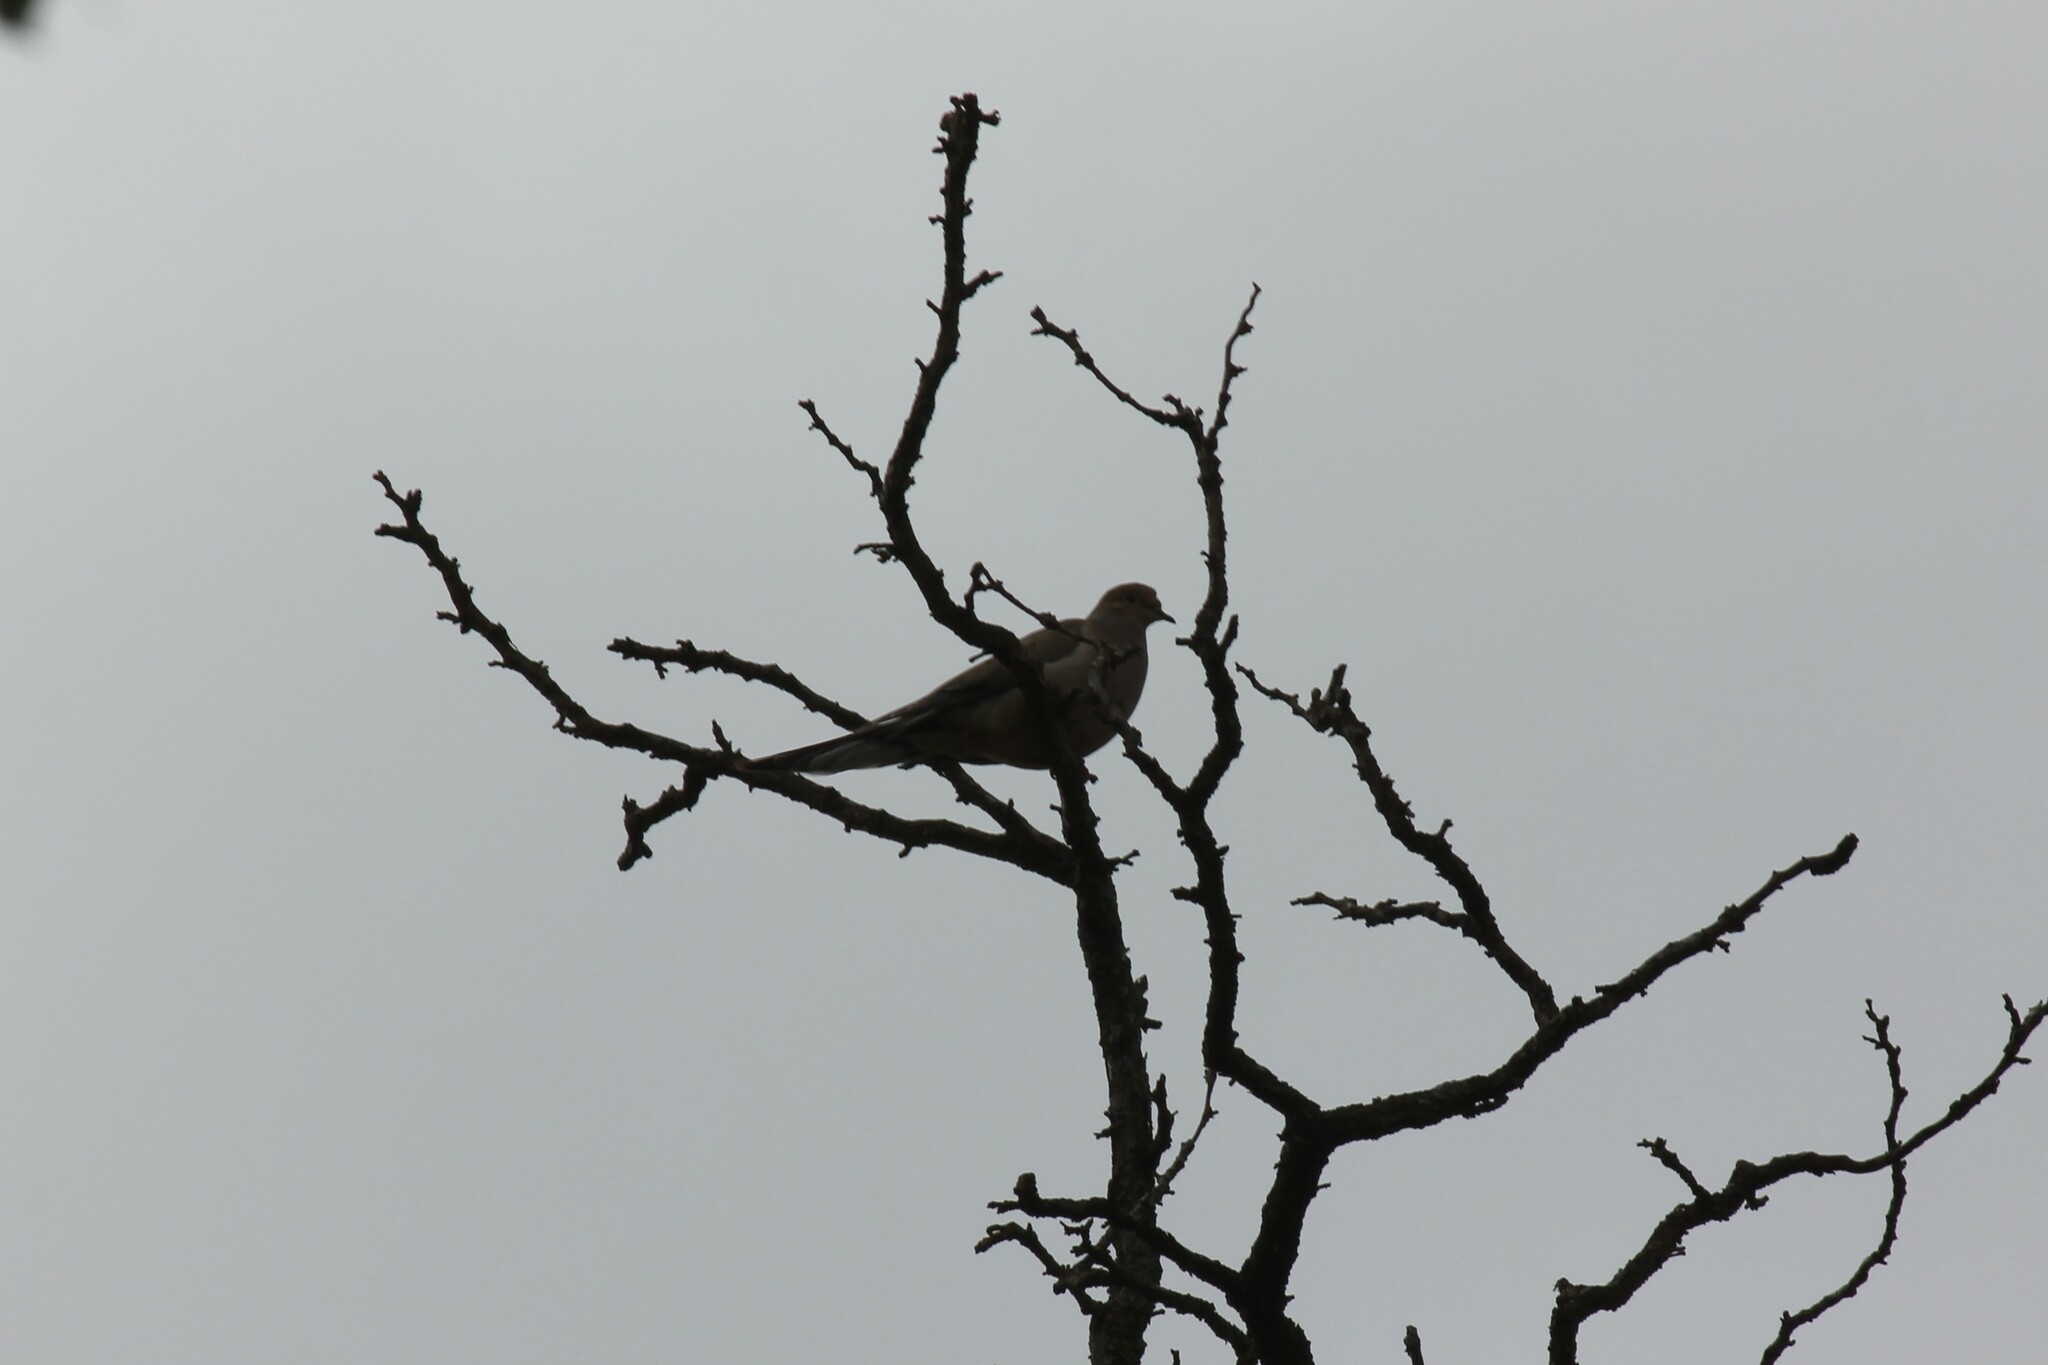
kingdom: Animalia
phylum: Chordata
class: Aves
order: Columbiformes
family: Columbidae
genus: Zenaida
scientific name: Zenaida macroura
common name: Mourning dove
